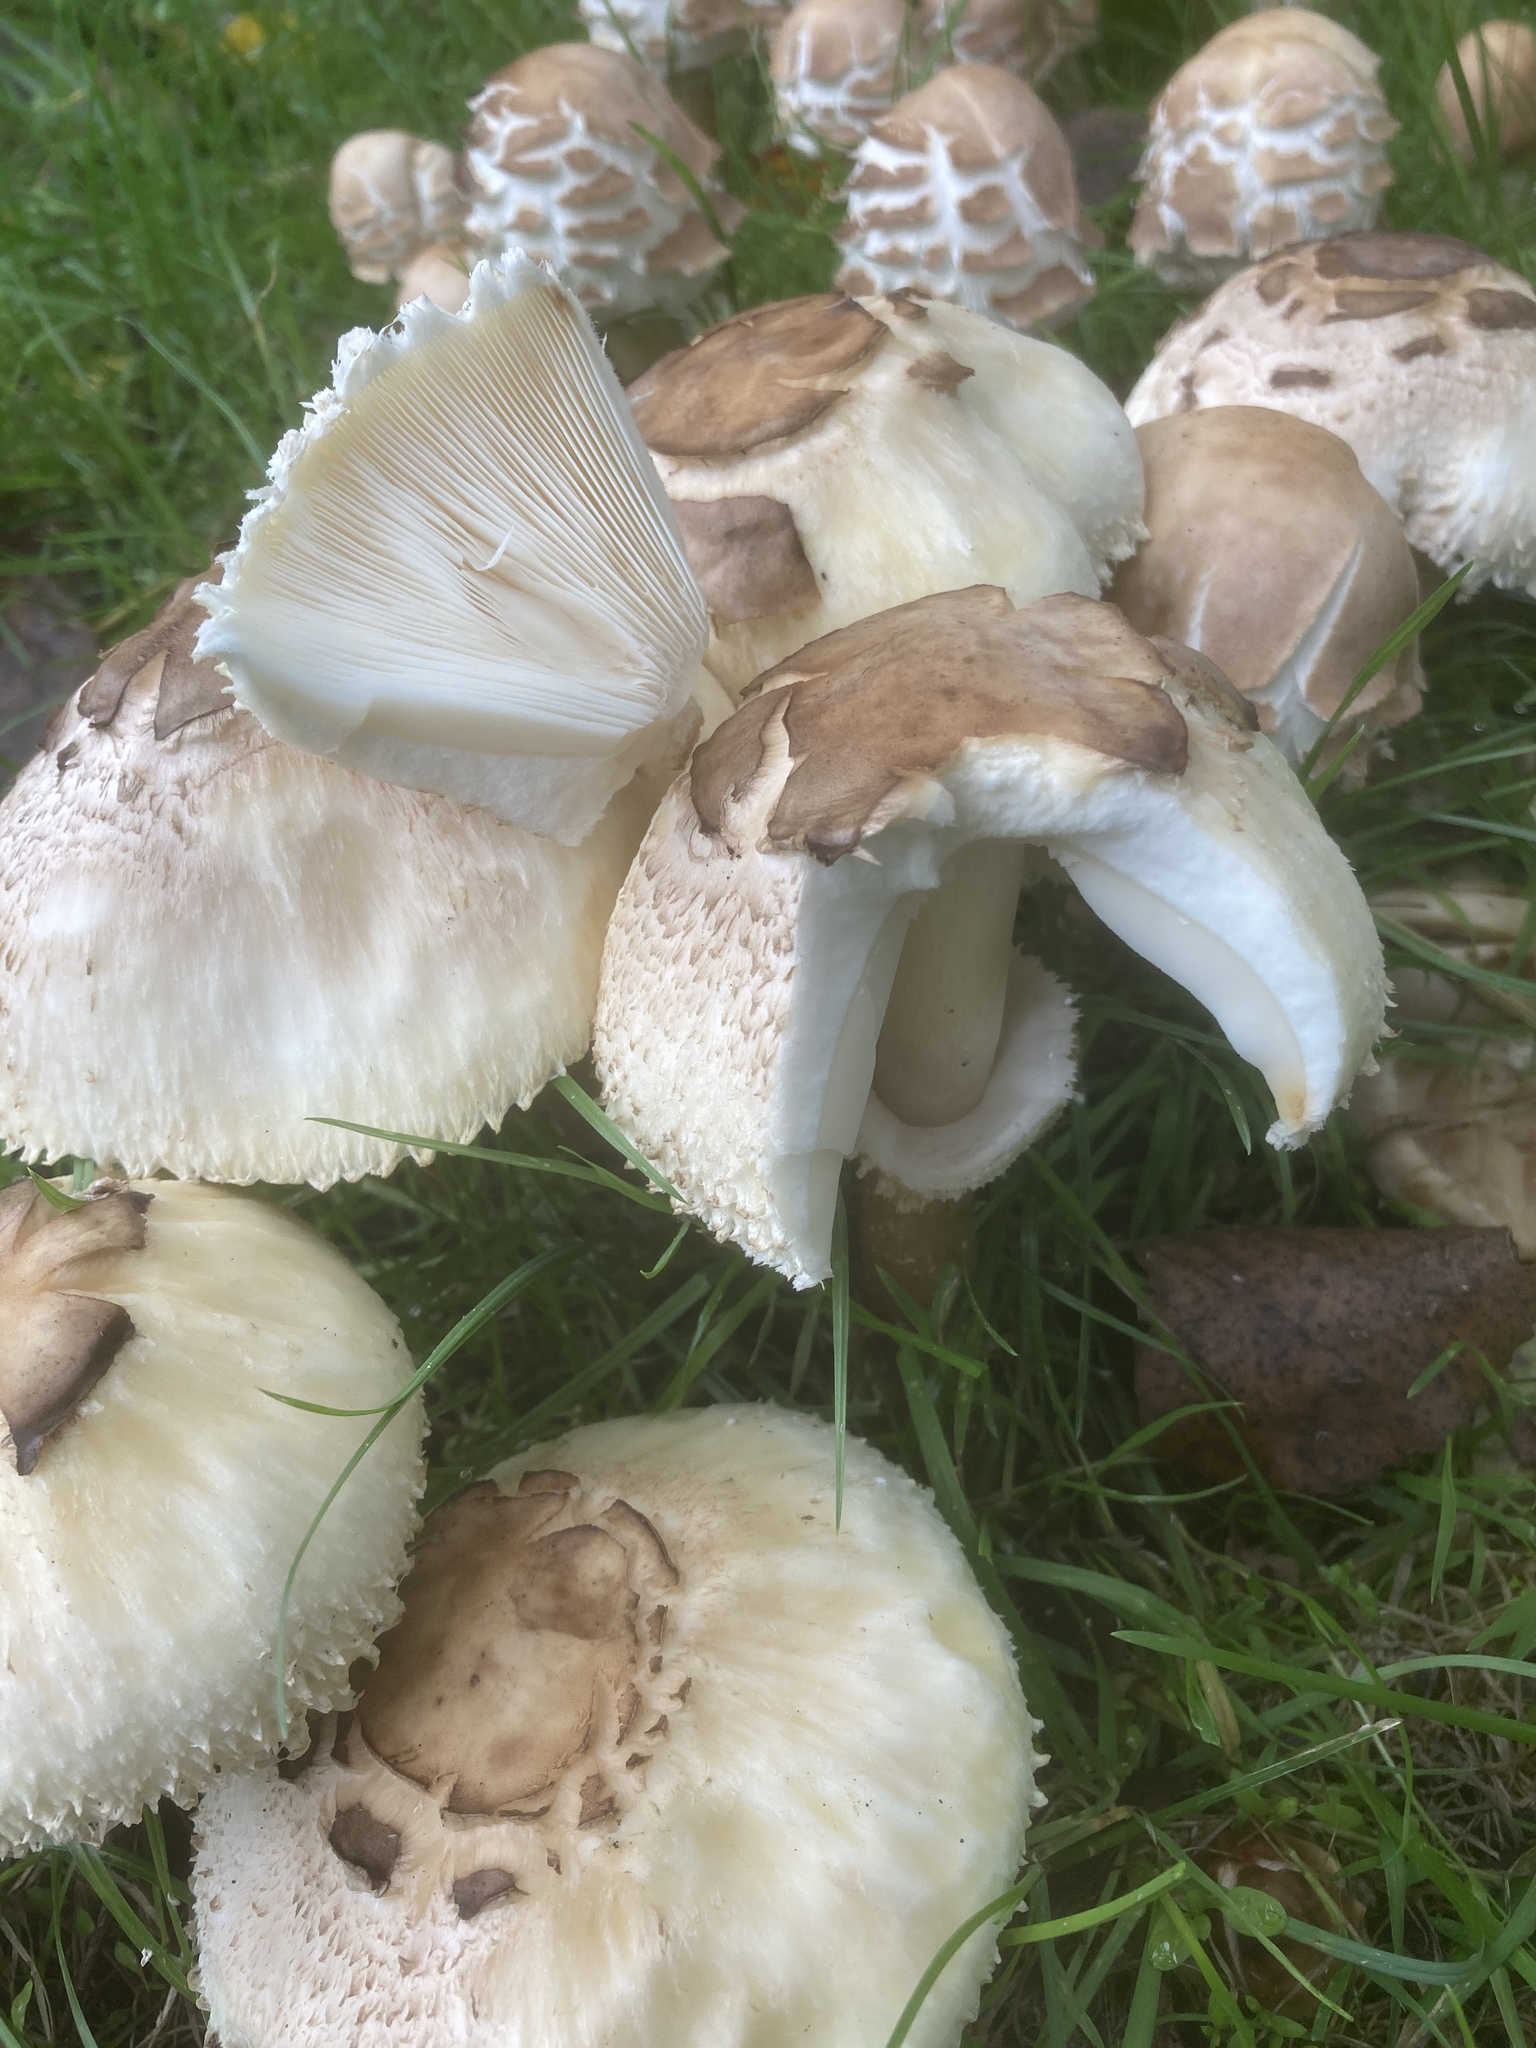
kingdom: Fungi
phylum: Basidiomycota
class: Agaricomycetes
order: Agaricales
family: Agaricaceae
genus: Chlorophyllum
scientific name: Chlorophyllum rhacodes
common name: Shaggy parasol
